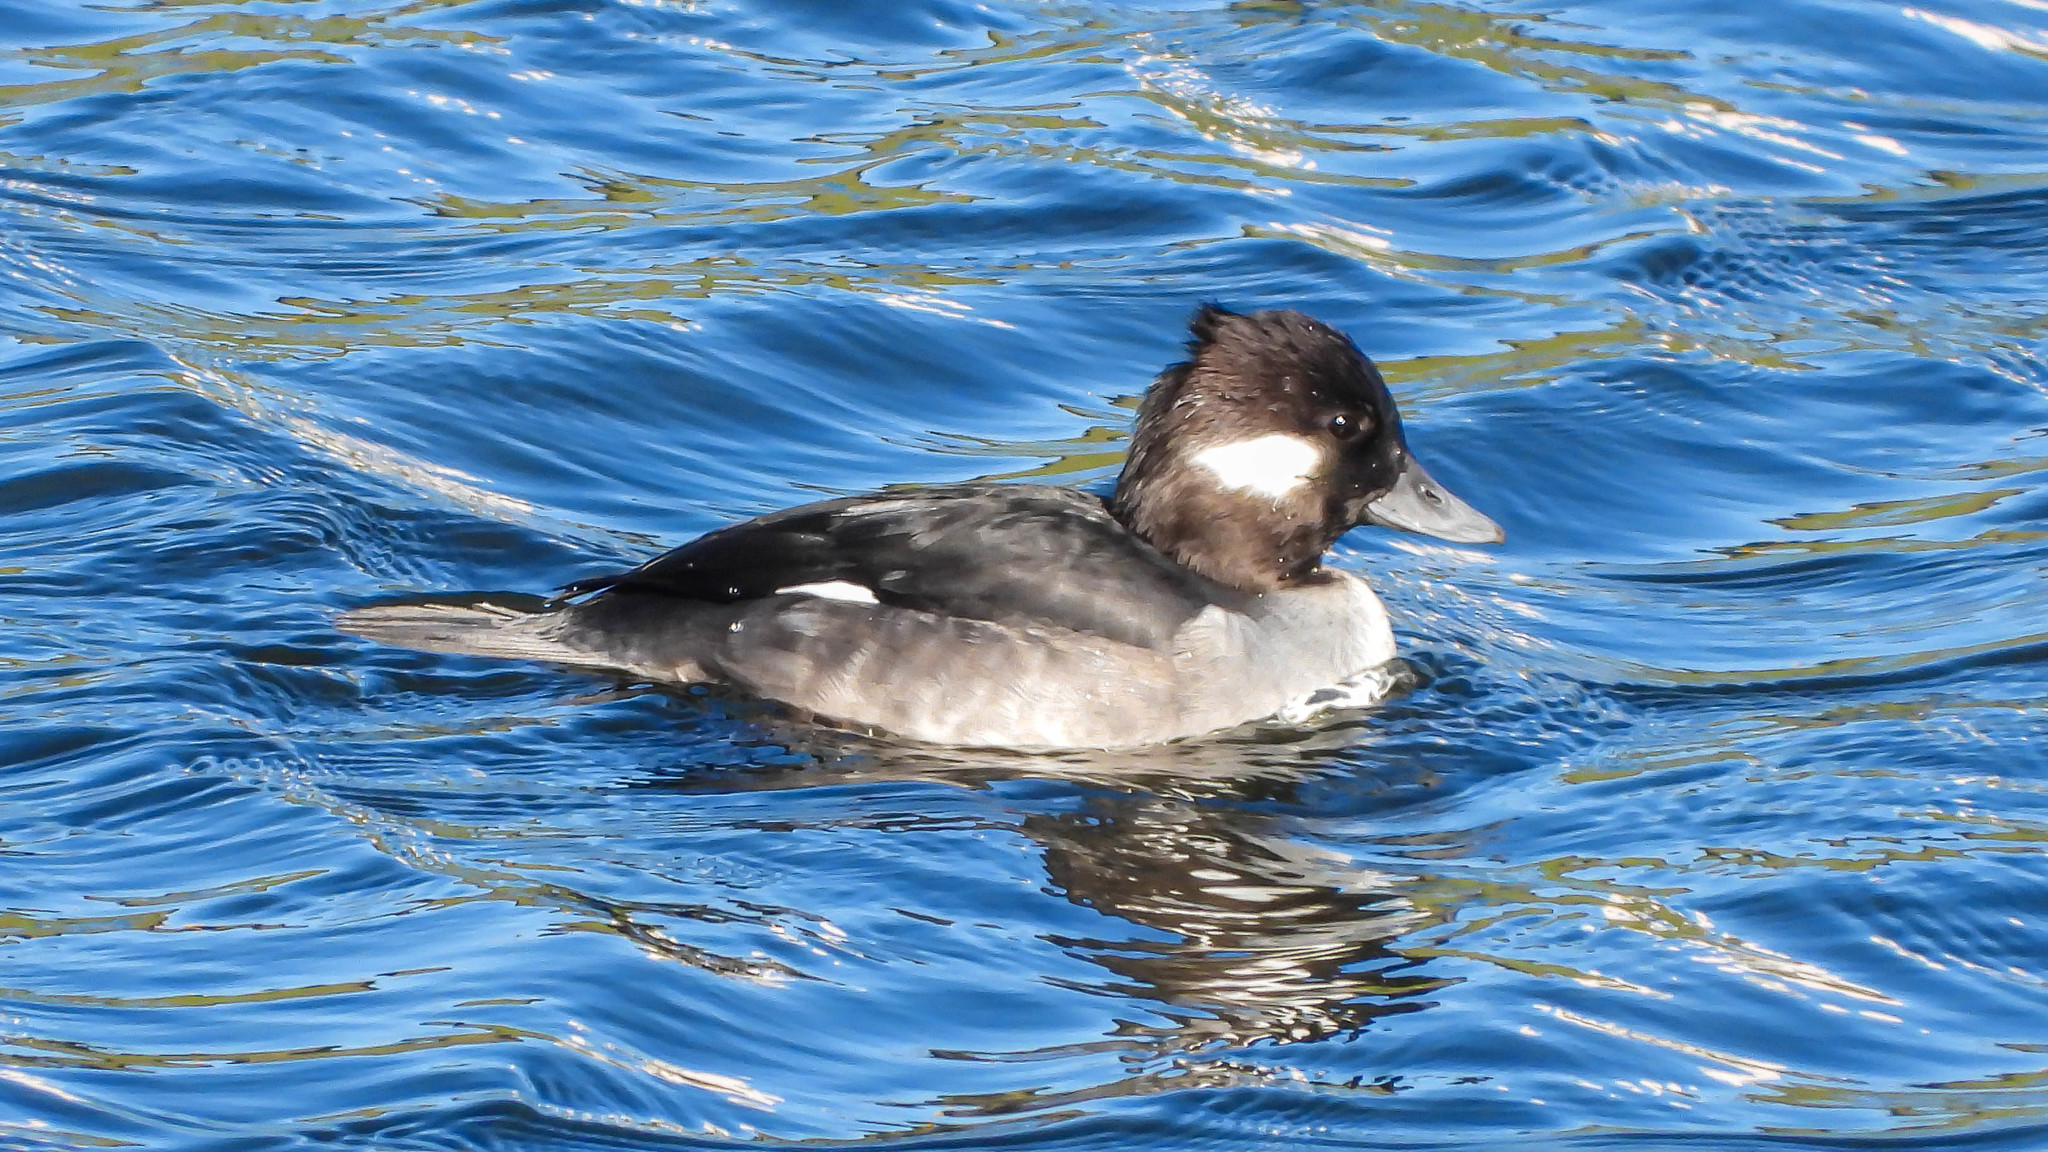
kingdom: Animalia
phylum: Chordata
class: Aves
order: Anseriformes
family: Anatidae
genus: Bucephala
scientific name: Bucephala albeola
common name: Bufflehead
